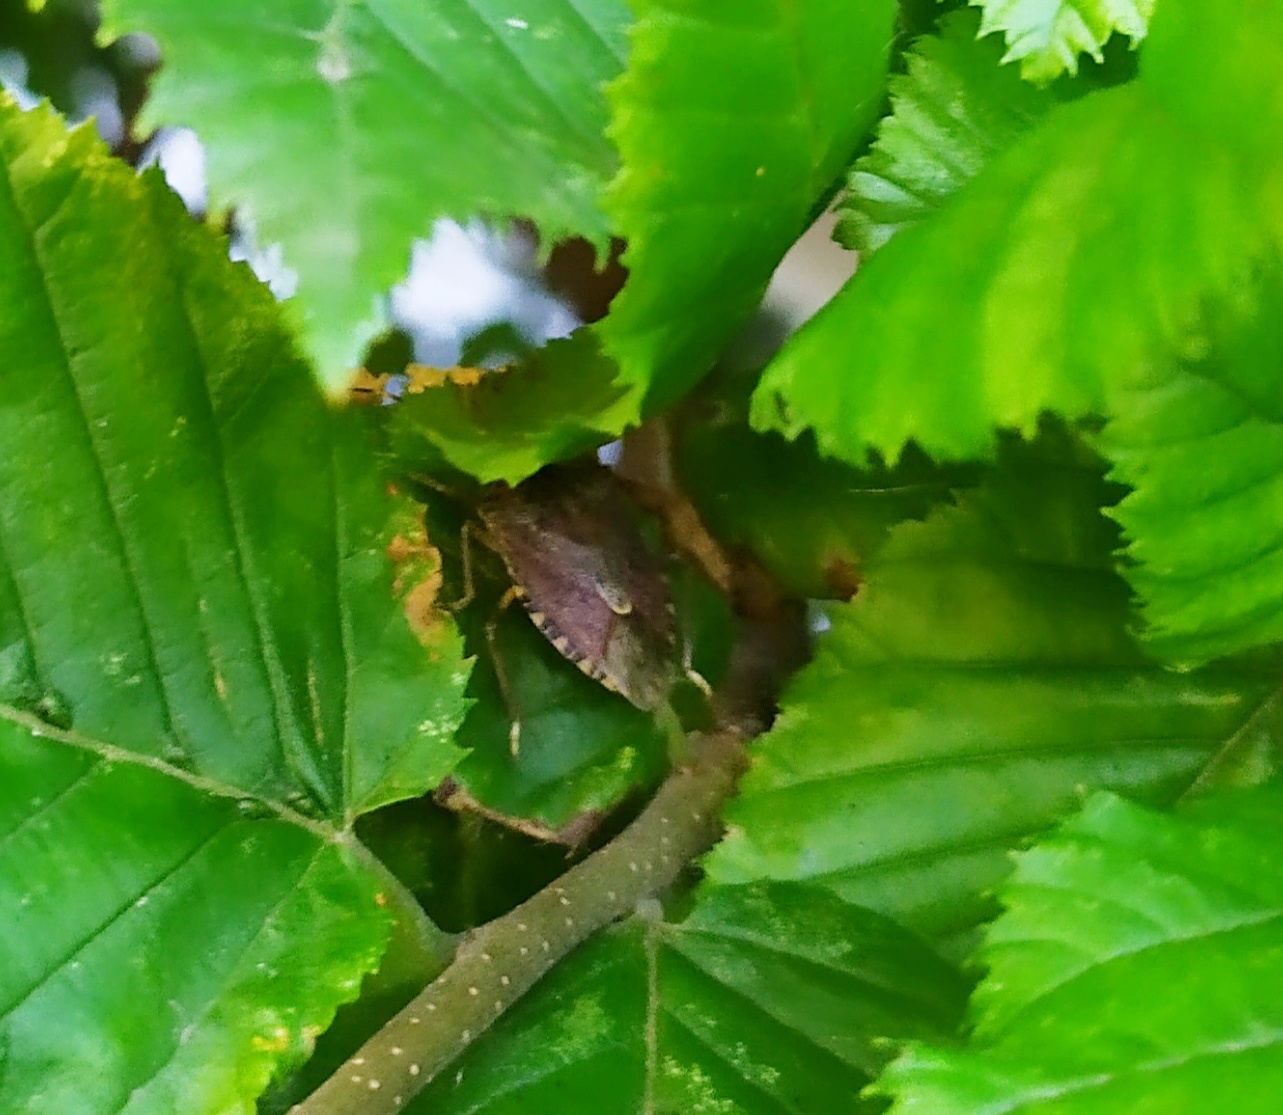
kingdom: Animalia
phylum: Arthropoda
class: Insecta
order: Hemiptera
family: Pentatomidae
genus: Halyomorpha
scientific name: Halyomorpha halys
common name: Brown marmorated stink bug
